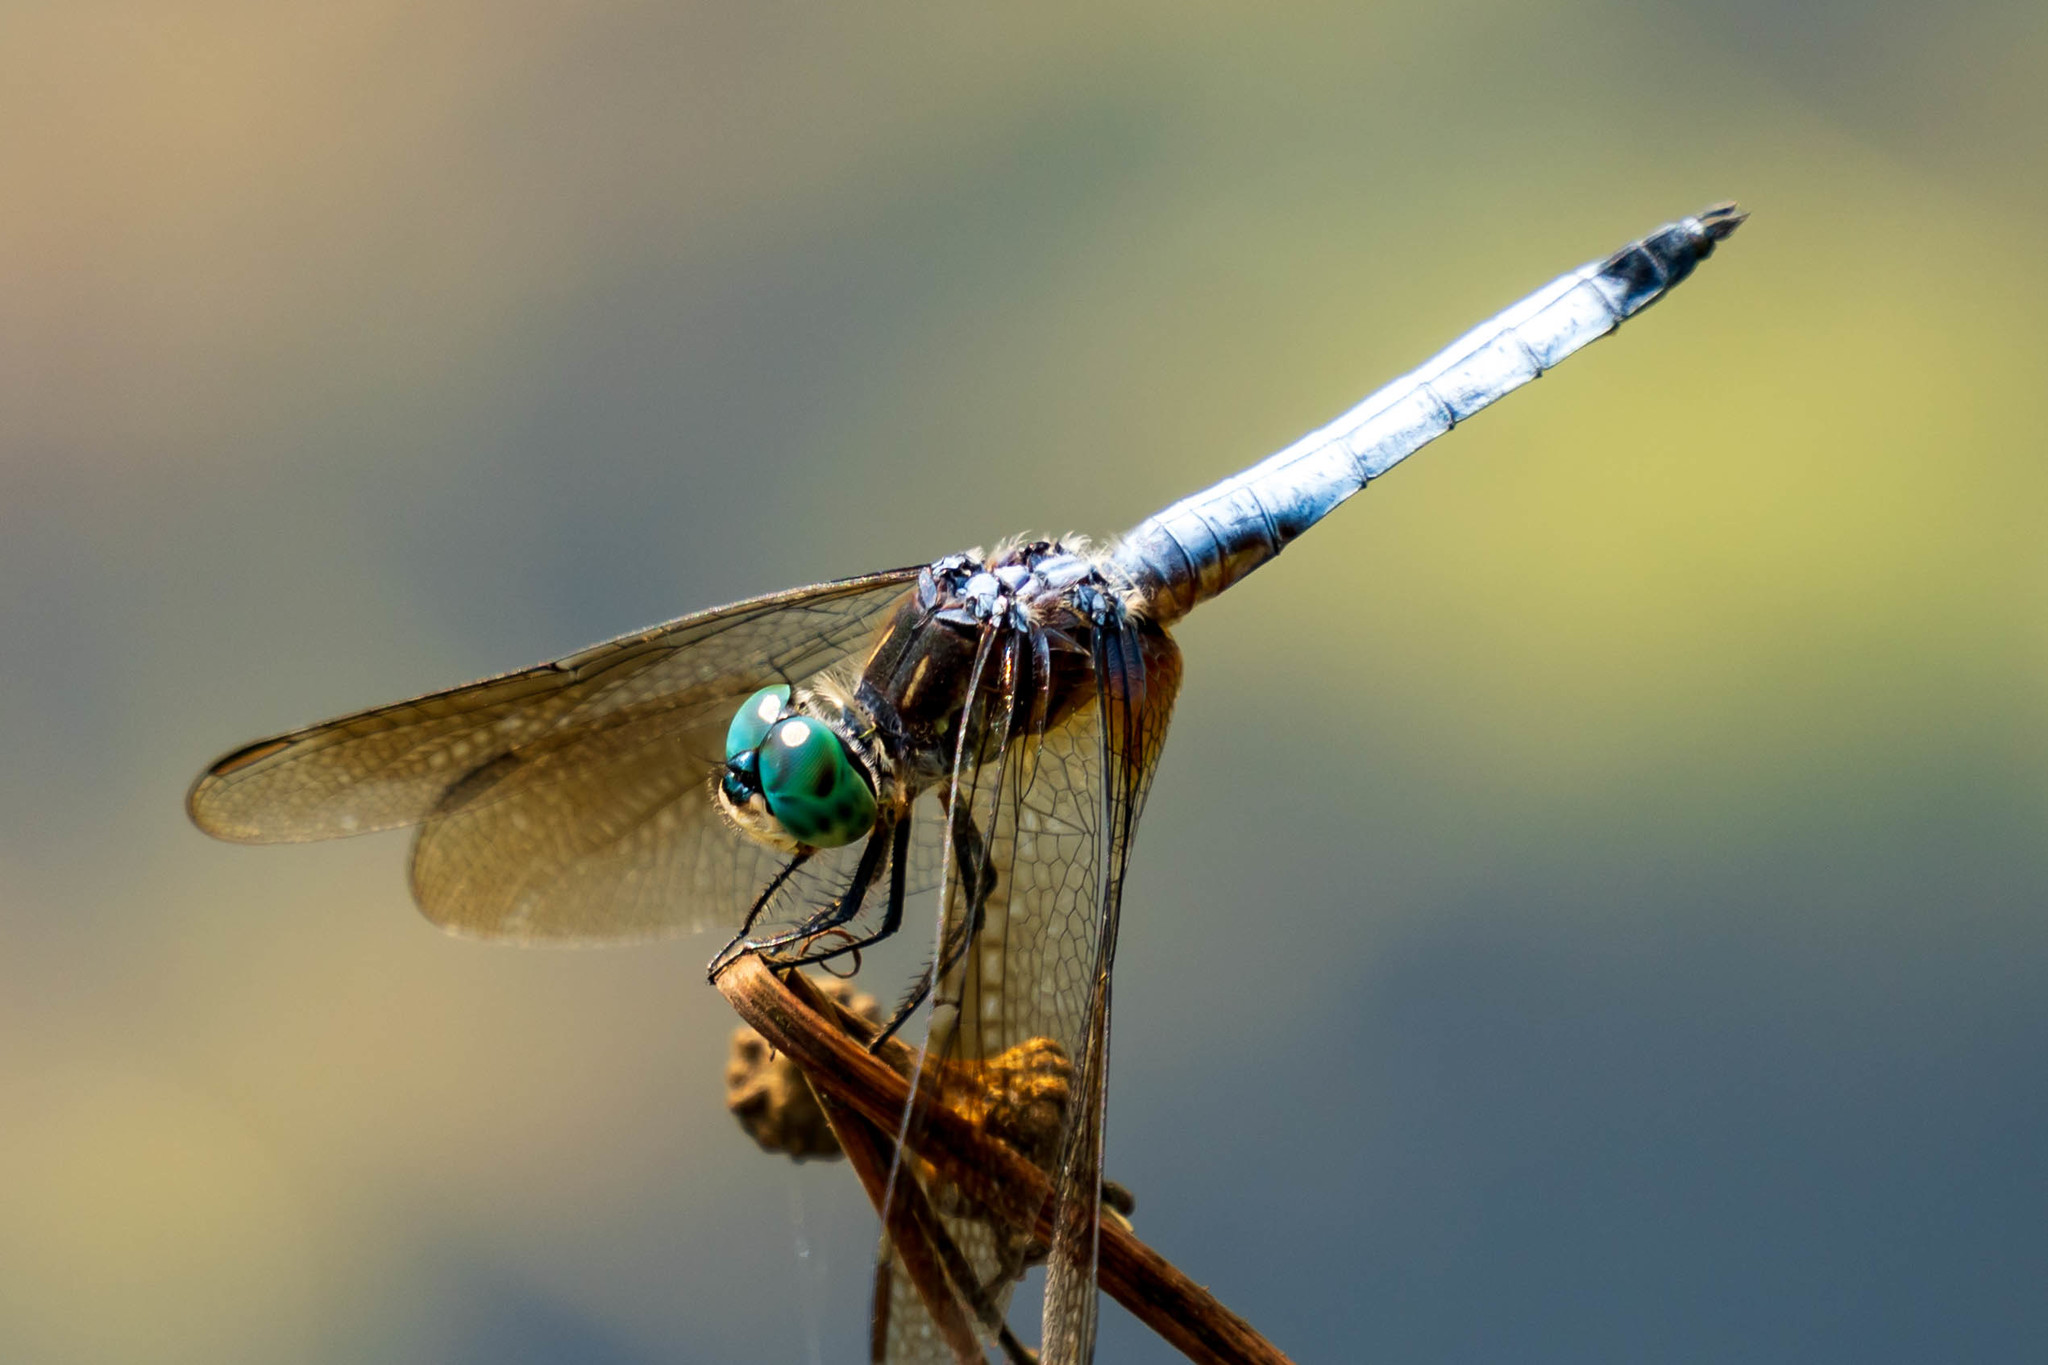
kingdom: Animalia
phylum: Arthropoda
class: Insecta
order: Odonata
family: Libellulidae
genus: Pachydiplax
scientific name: Pachydiplax longipennis
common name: Blue dasher
